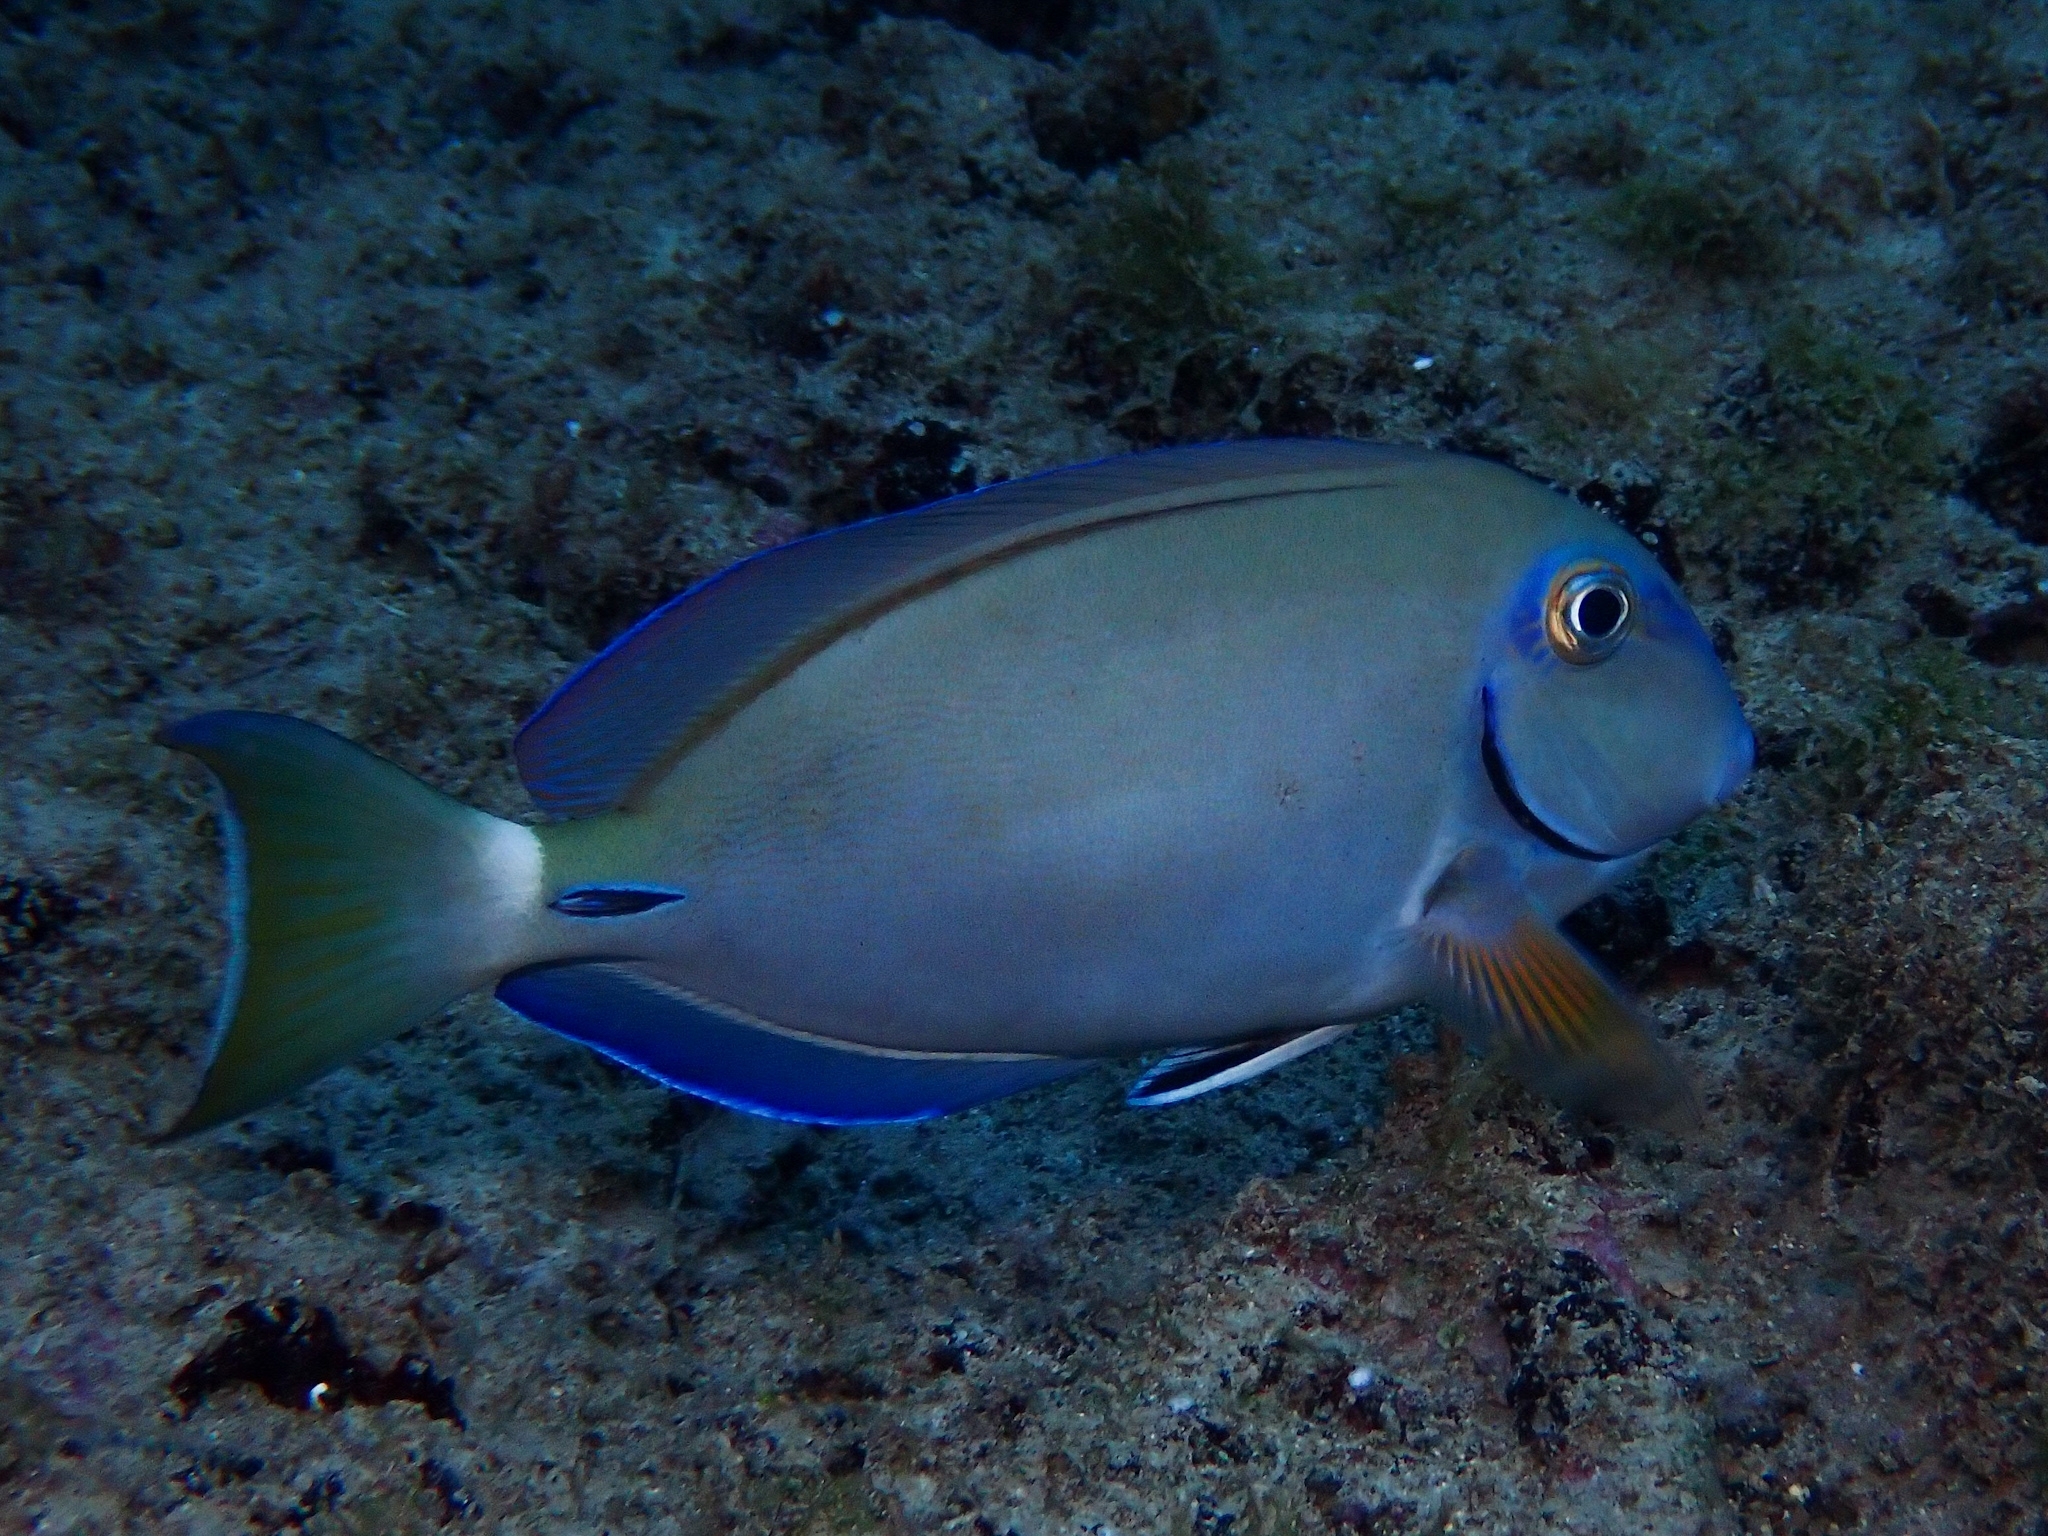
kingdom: Animalia
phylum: Chordata
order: Perciformes
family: Acanthuridae
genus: Acanthurus
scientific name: Acanthurus bahianus
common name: Ocean surgeon
